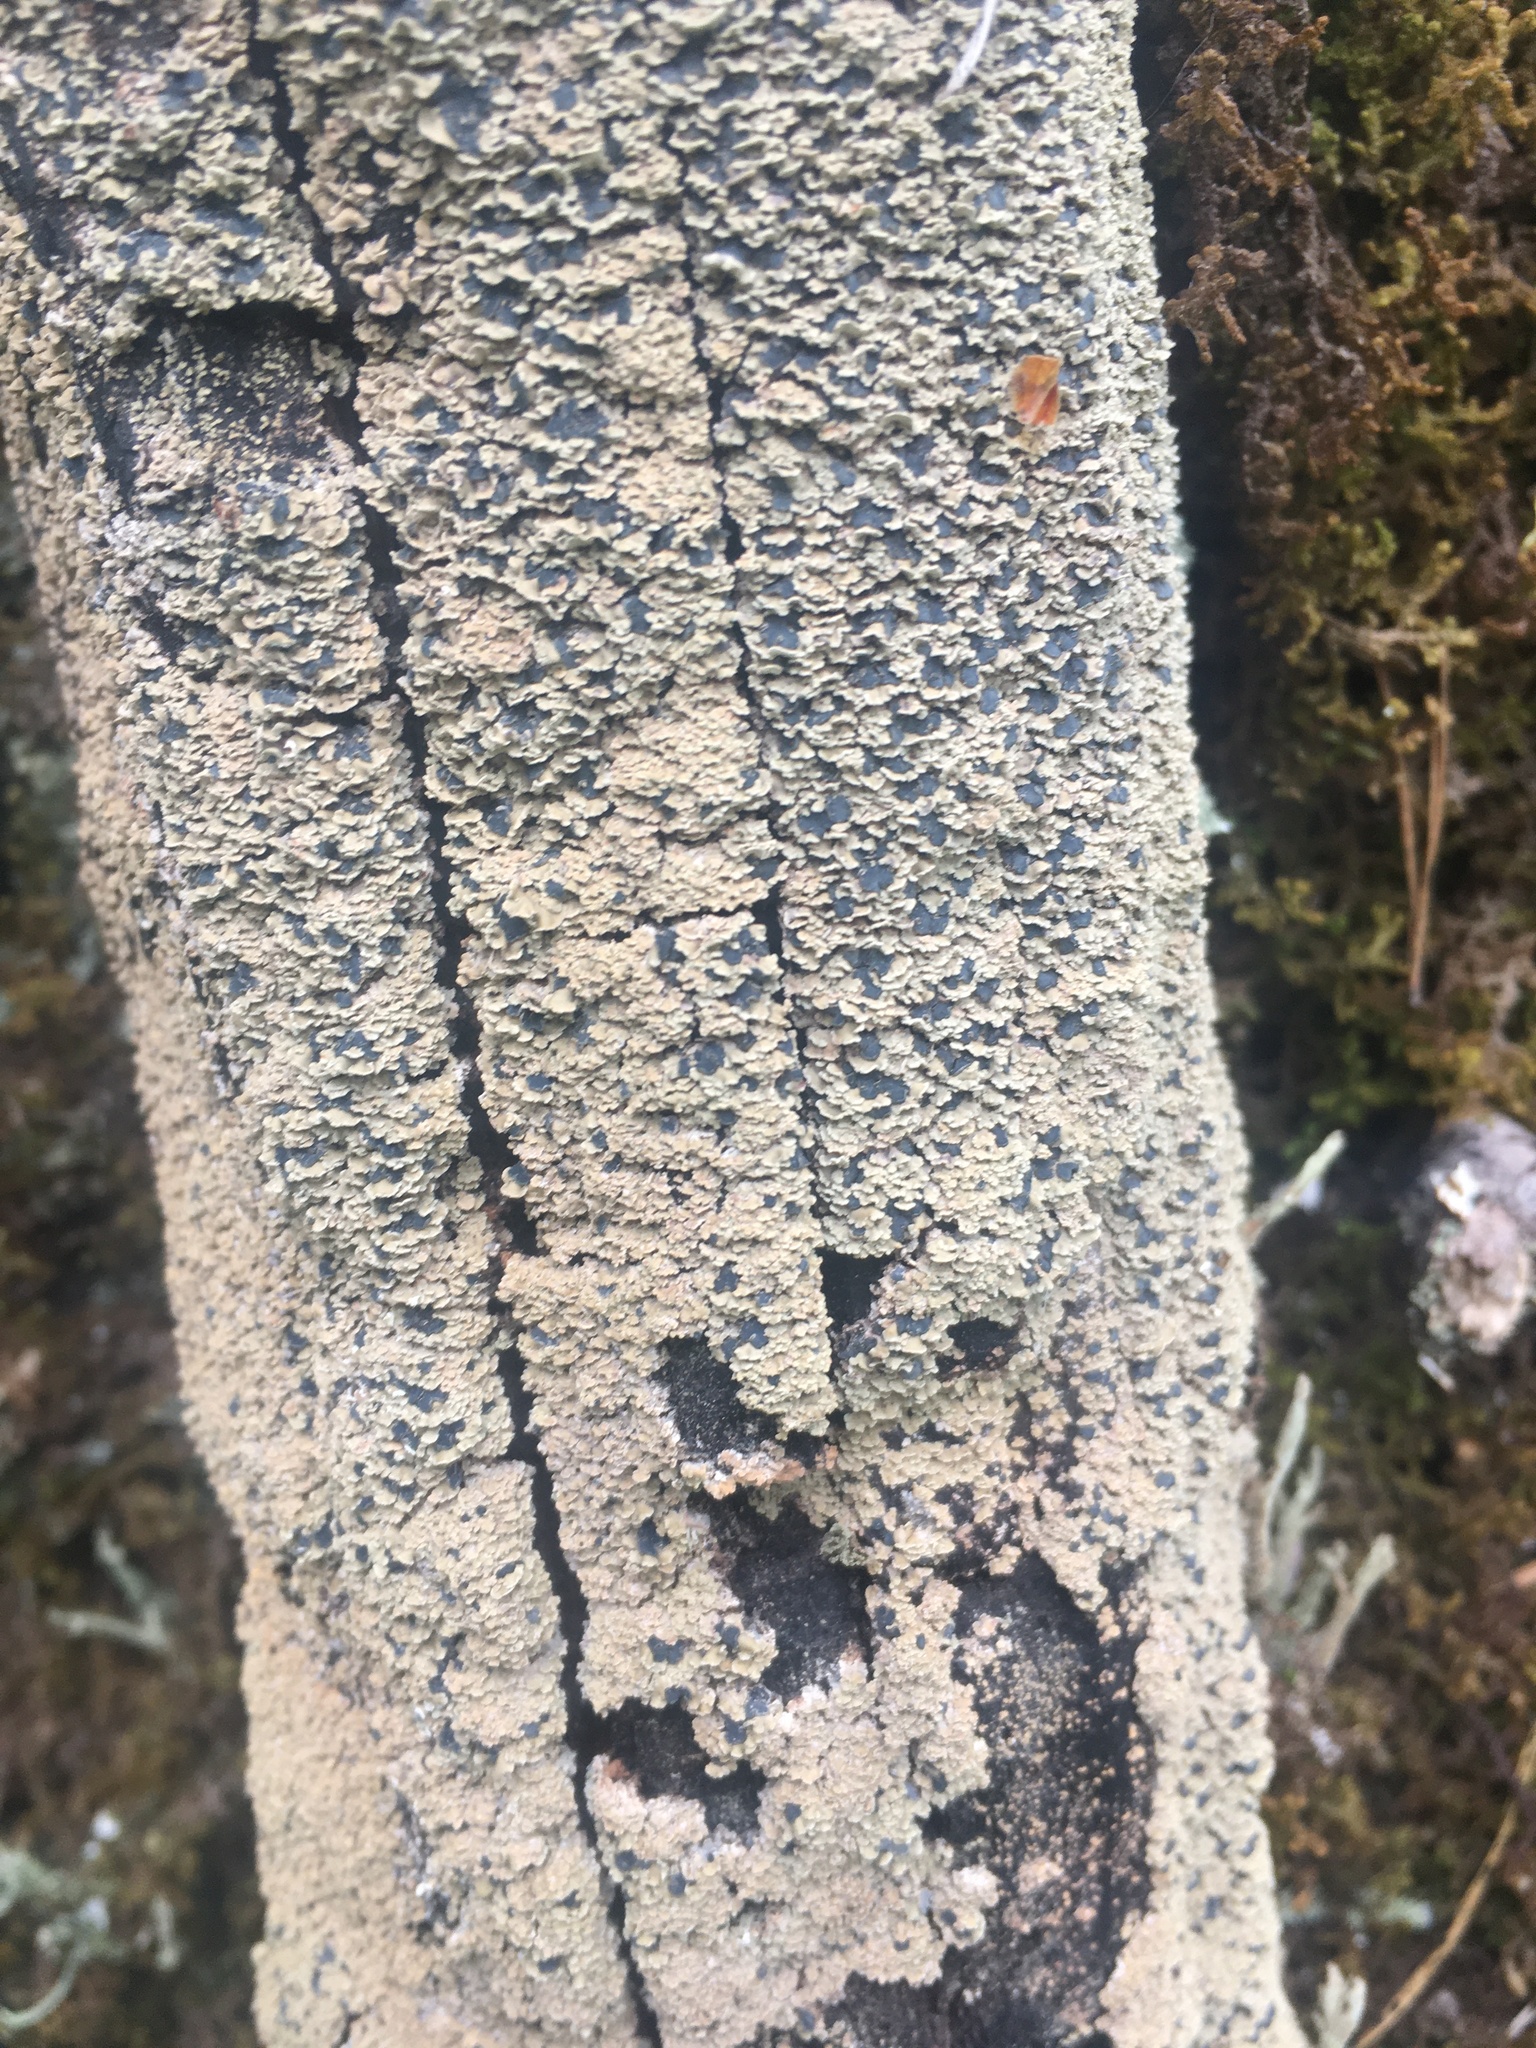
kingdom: Fungi
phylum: Ascomycota
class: Lecanoromycetes
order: Umbilicariales
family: Ophioparmaceae
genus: Hypocenomyce
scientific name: Hypocenomyce scalaris
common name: Common clam lichen
